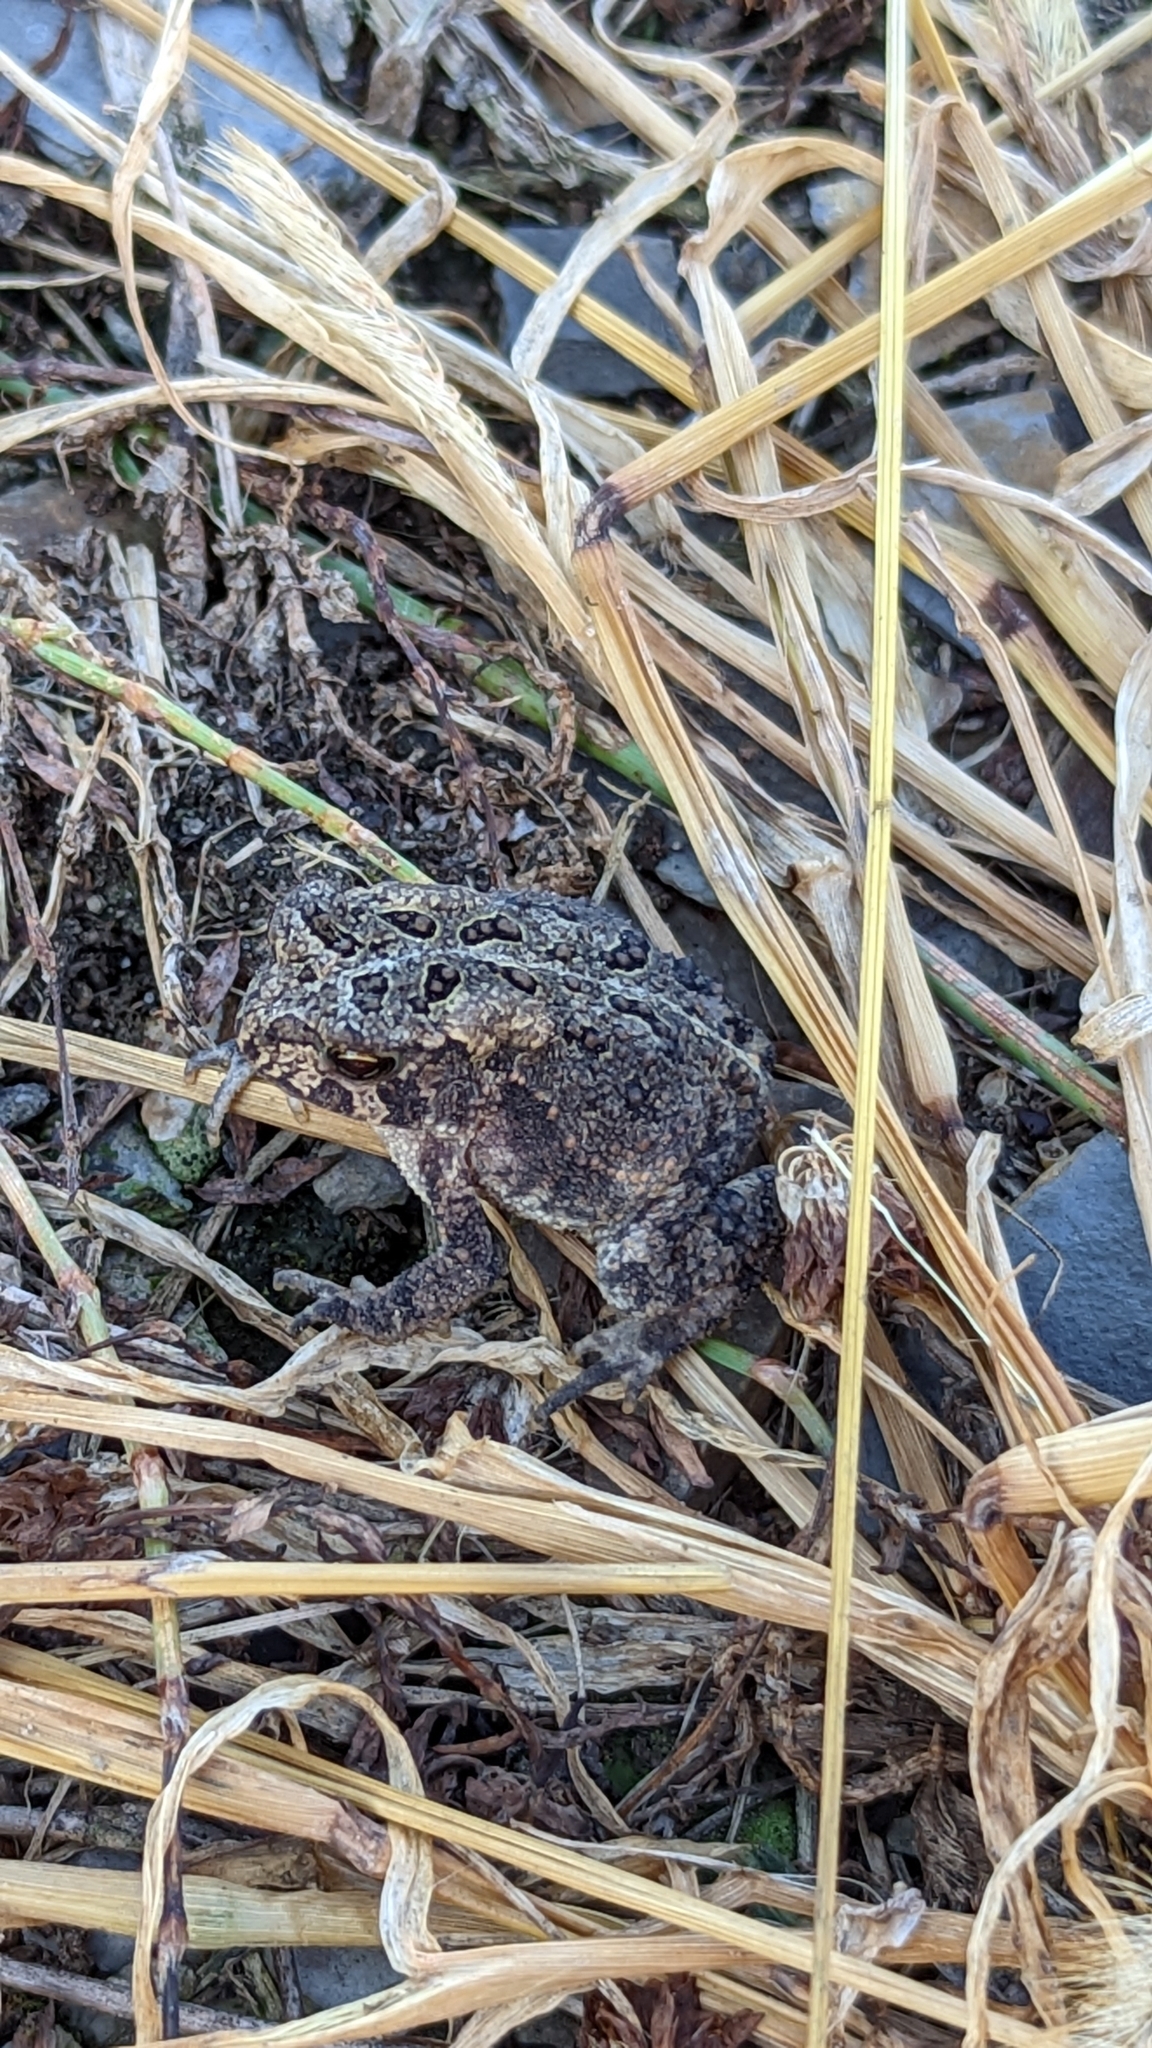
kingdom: Animalia
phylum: Chordata
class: Amphibia
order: Anura
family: Bufonidae
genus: Anaxyrus
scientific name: Anaxyrus americanus
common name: American toad
